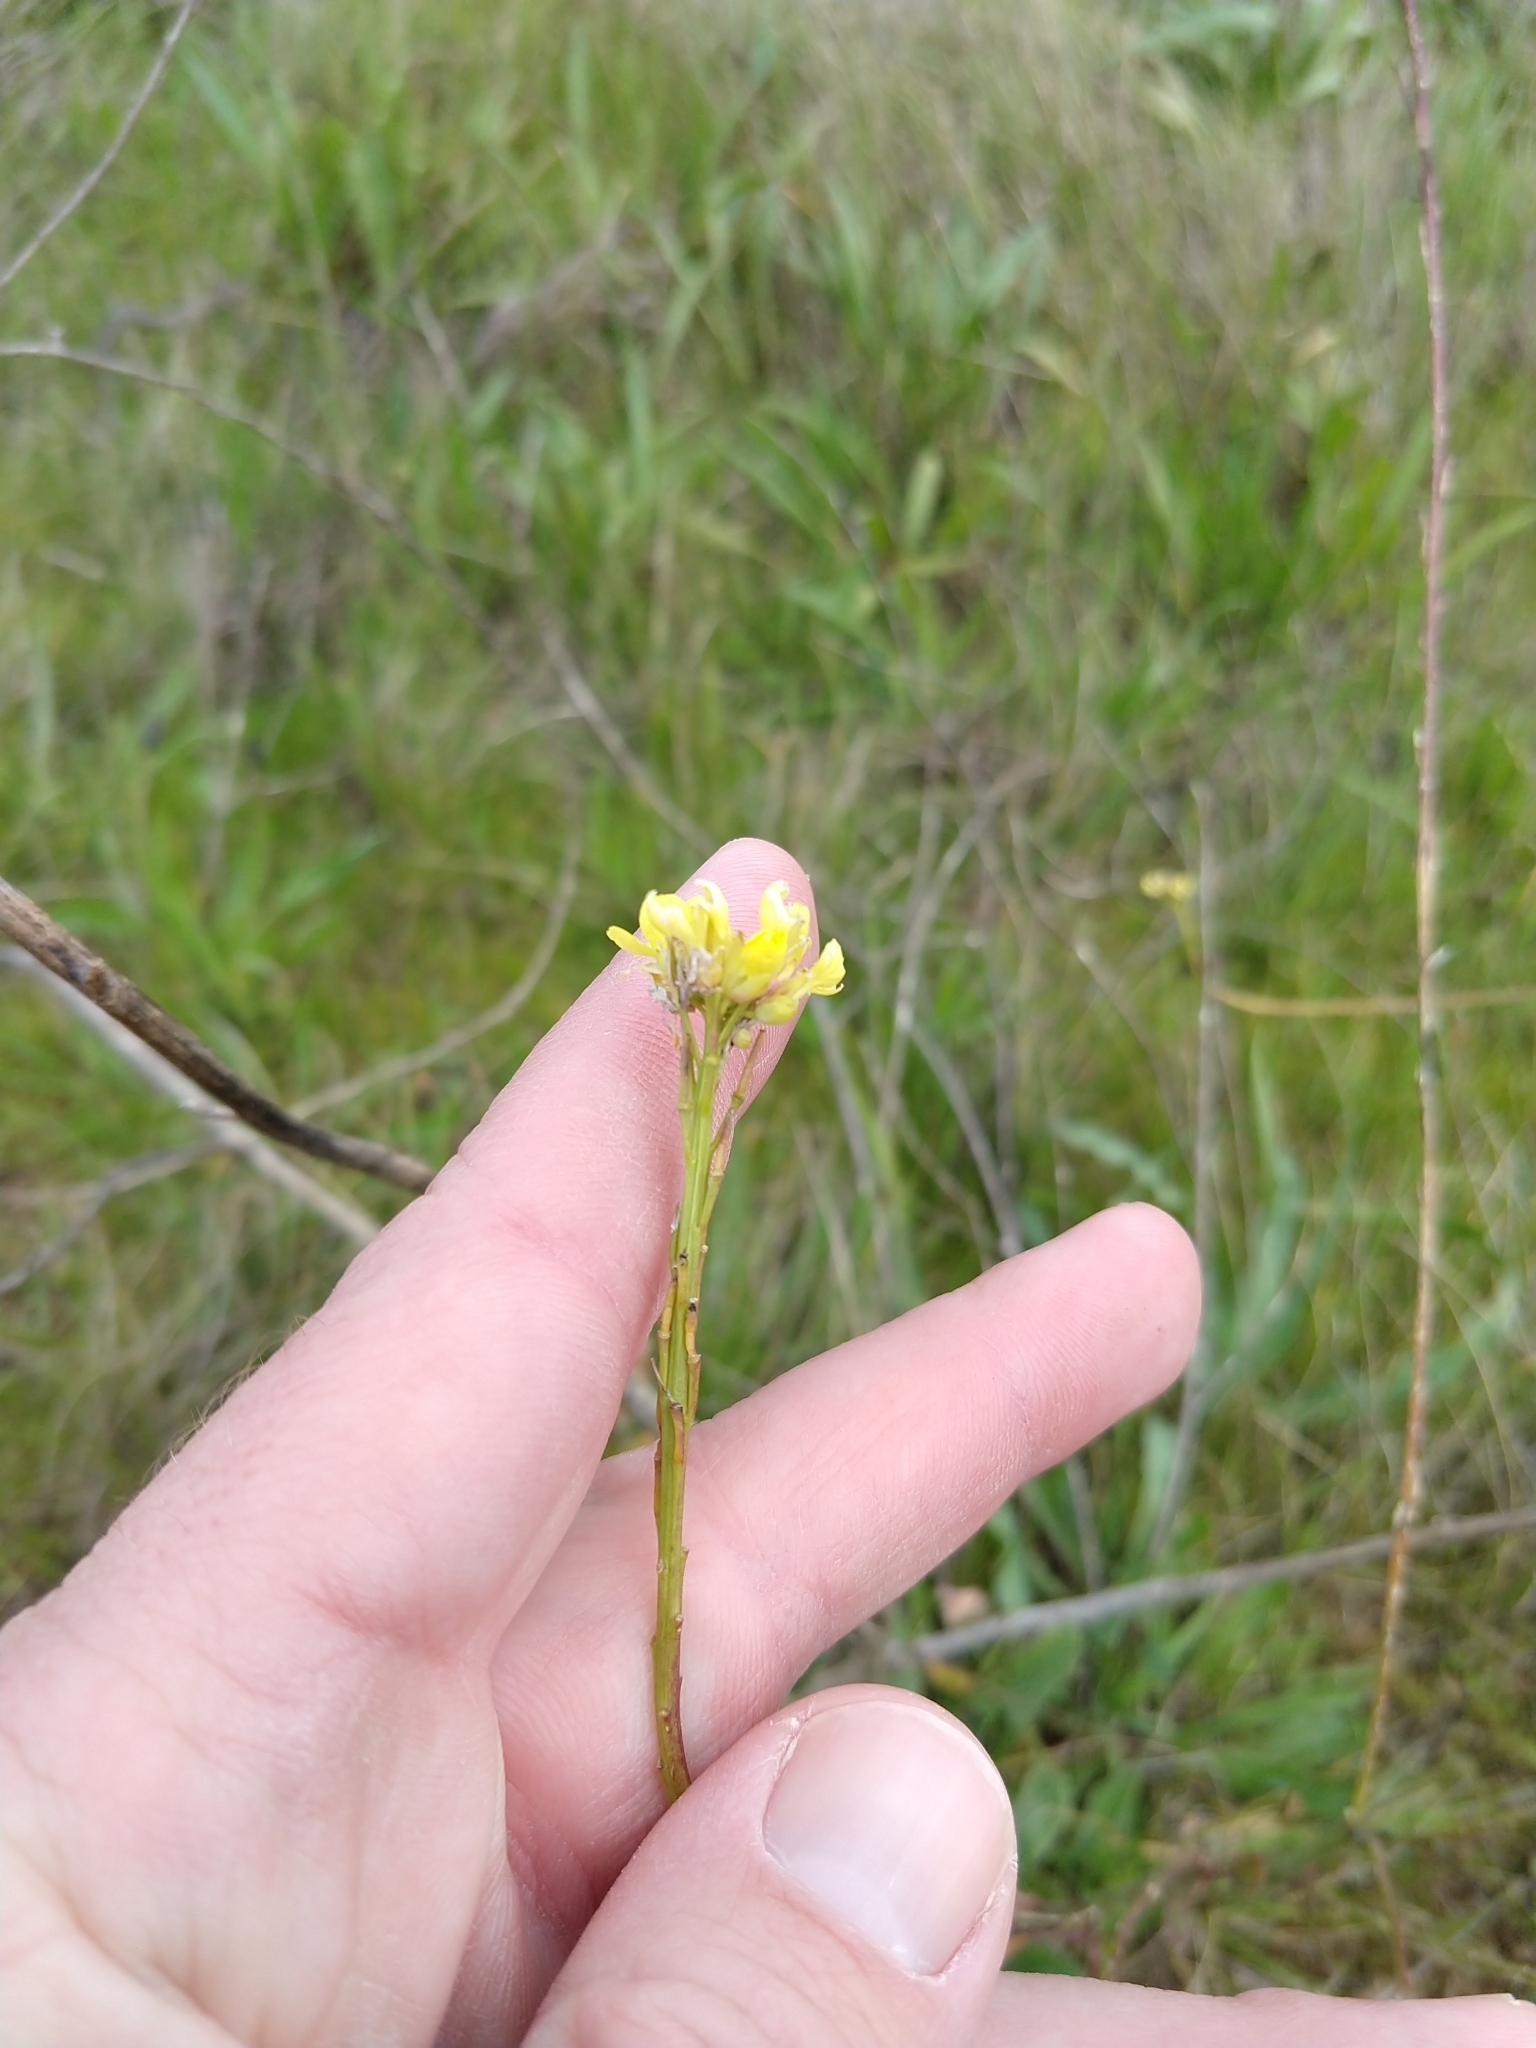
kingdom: Plantae
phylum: Tracheophyta
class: Magnoliopsida
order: Brassicales
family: Brassicaceae
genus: Hirschfeldia
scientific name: Hirschfeldia incana
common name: Hoary mustard
